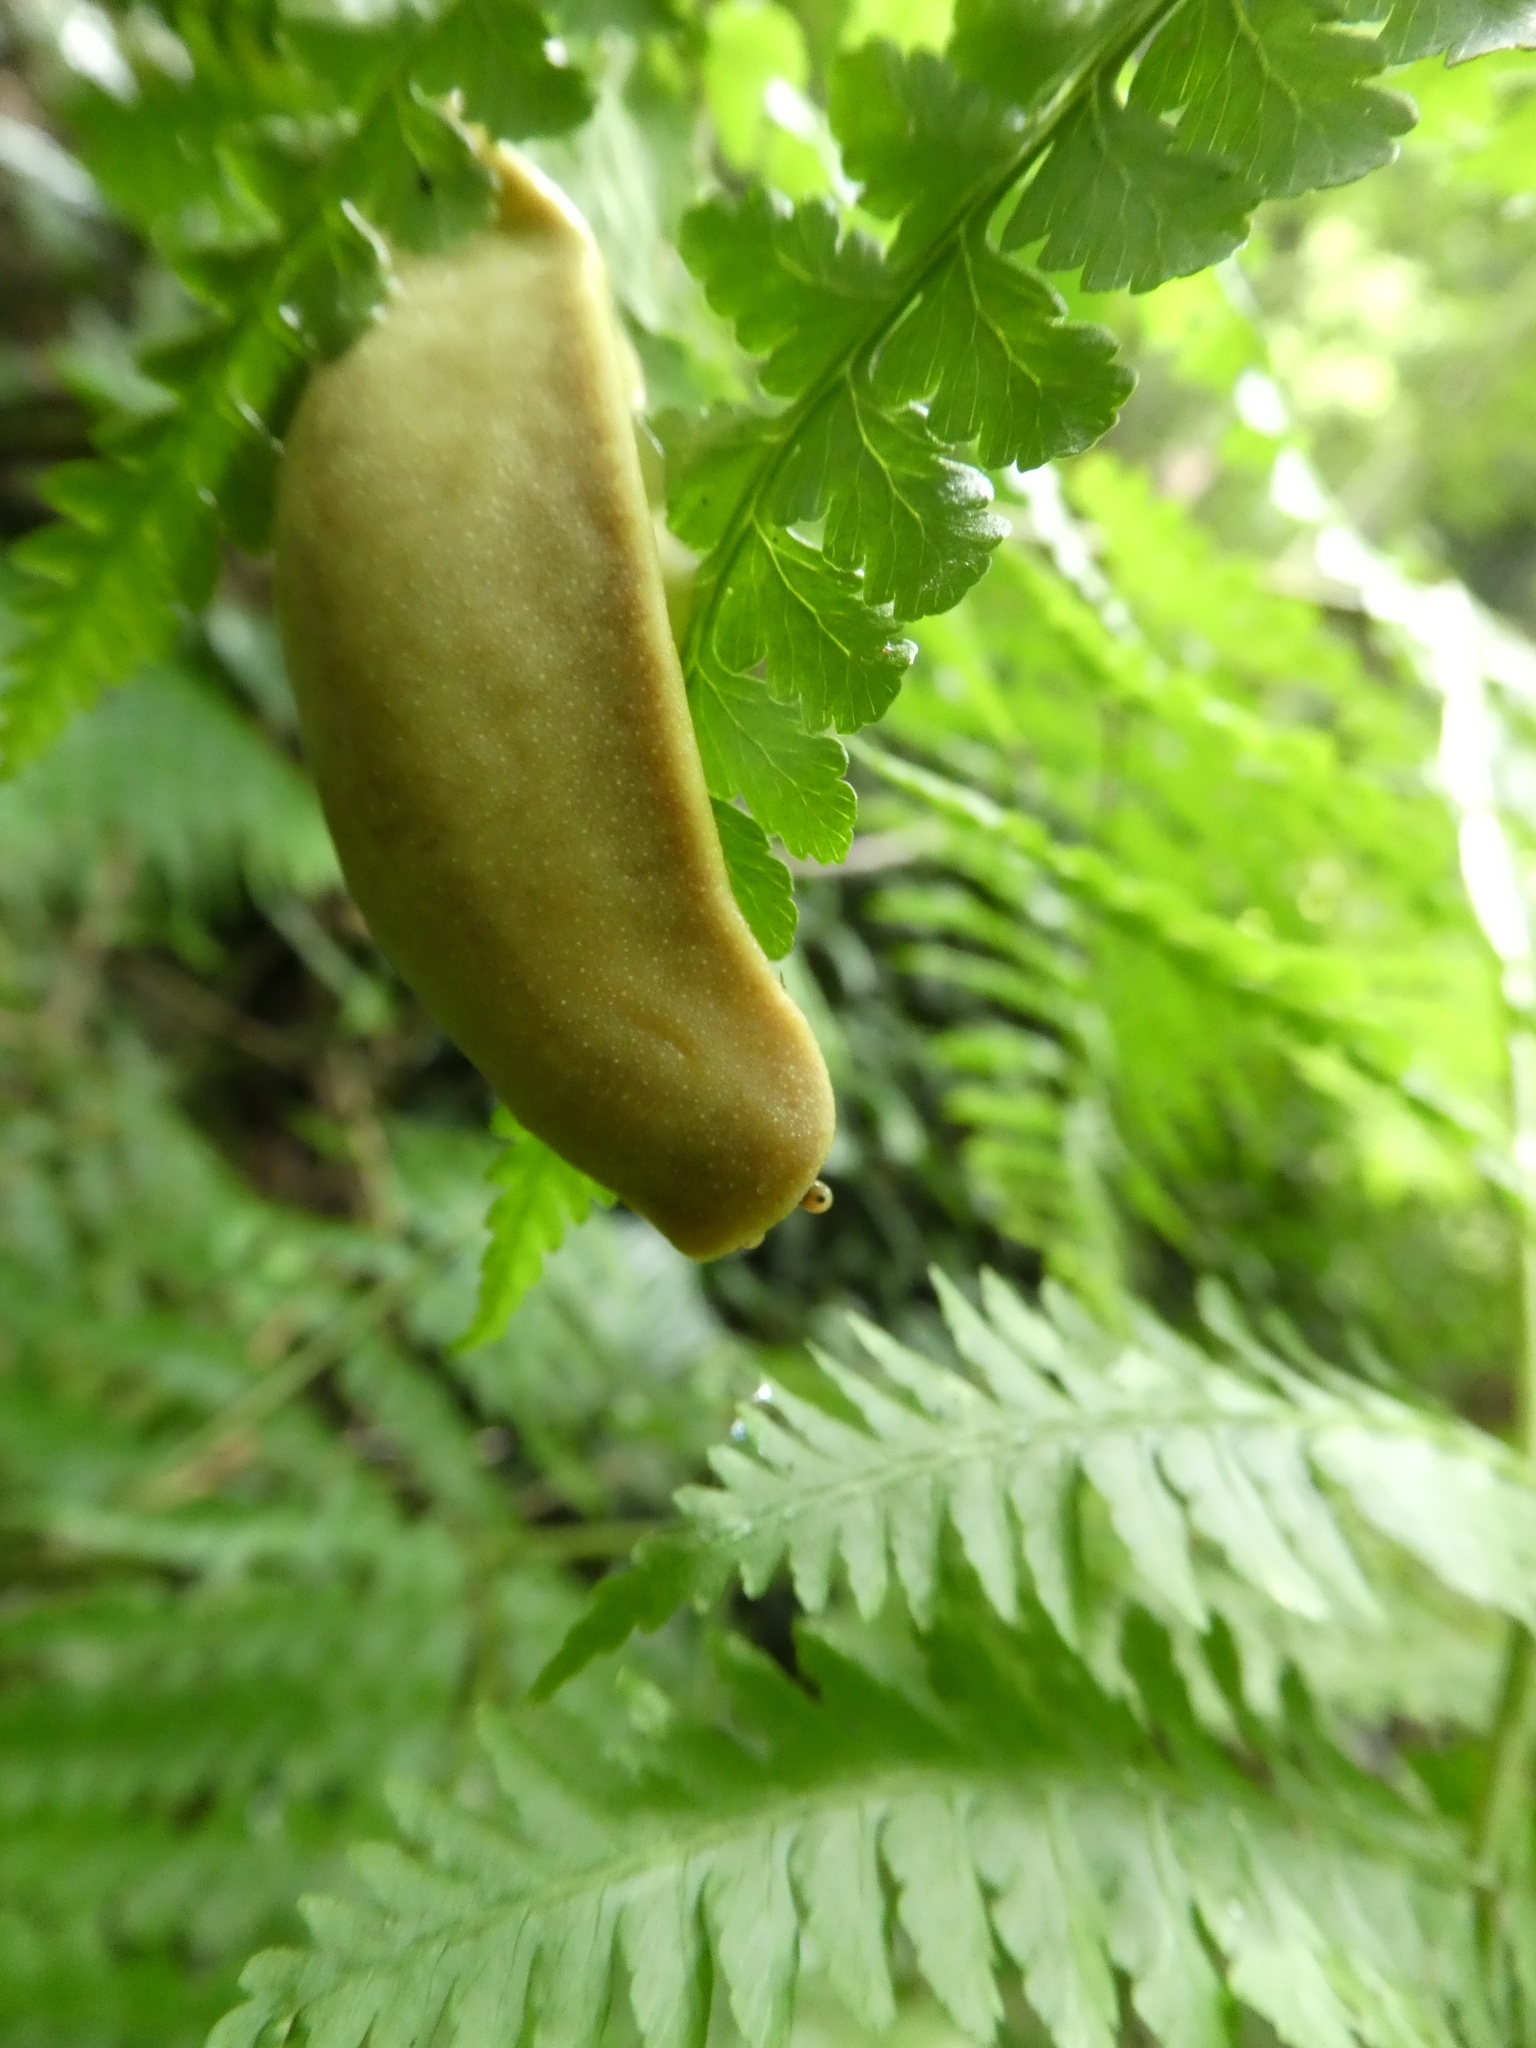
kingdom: Animalia
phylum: Mollusca
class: Gastropoda
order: Systellommatophora
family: Veronicellidae
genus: Vaginulus
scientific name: Vaginulus taunaisii
